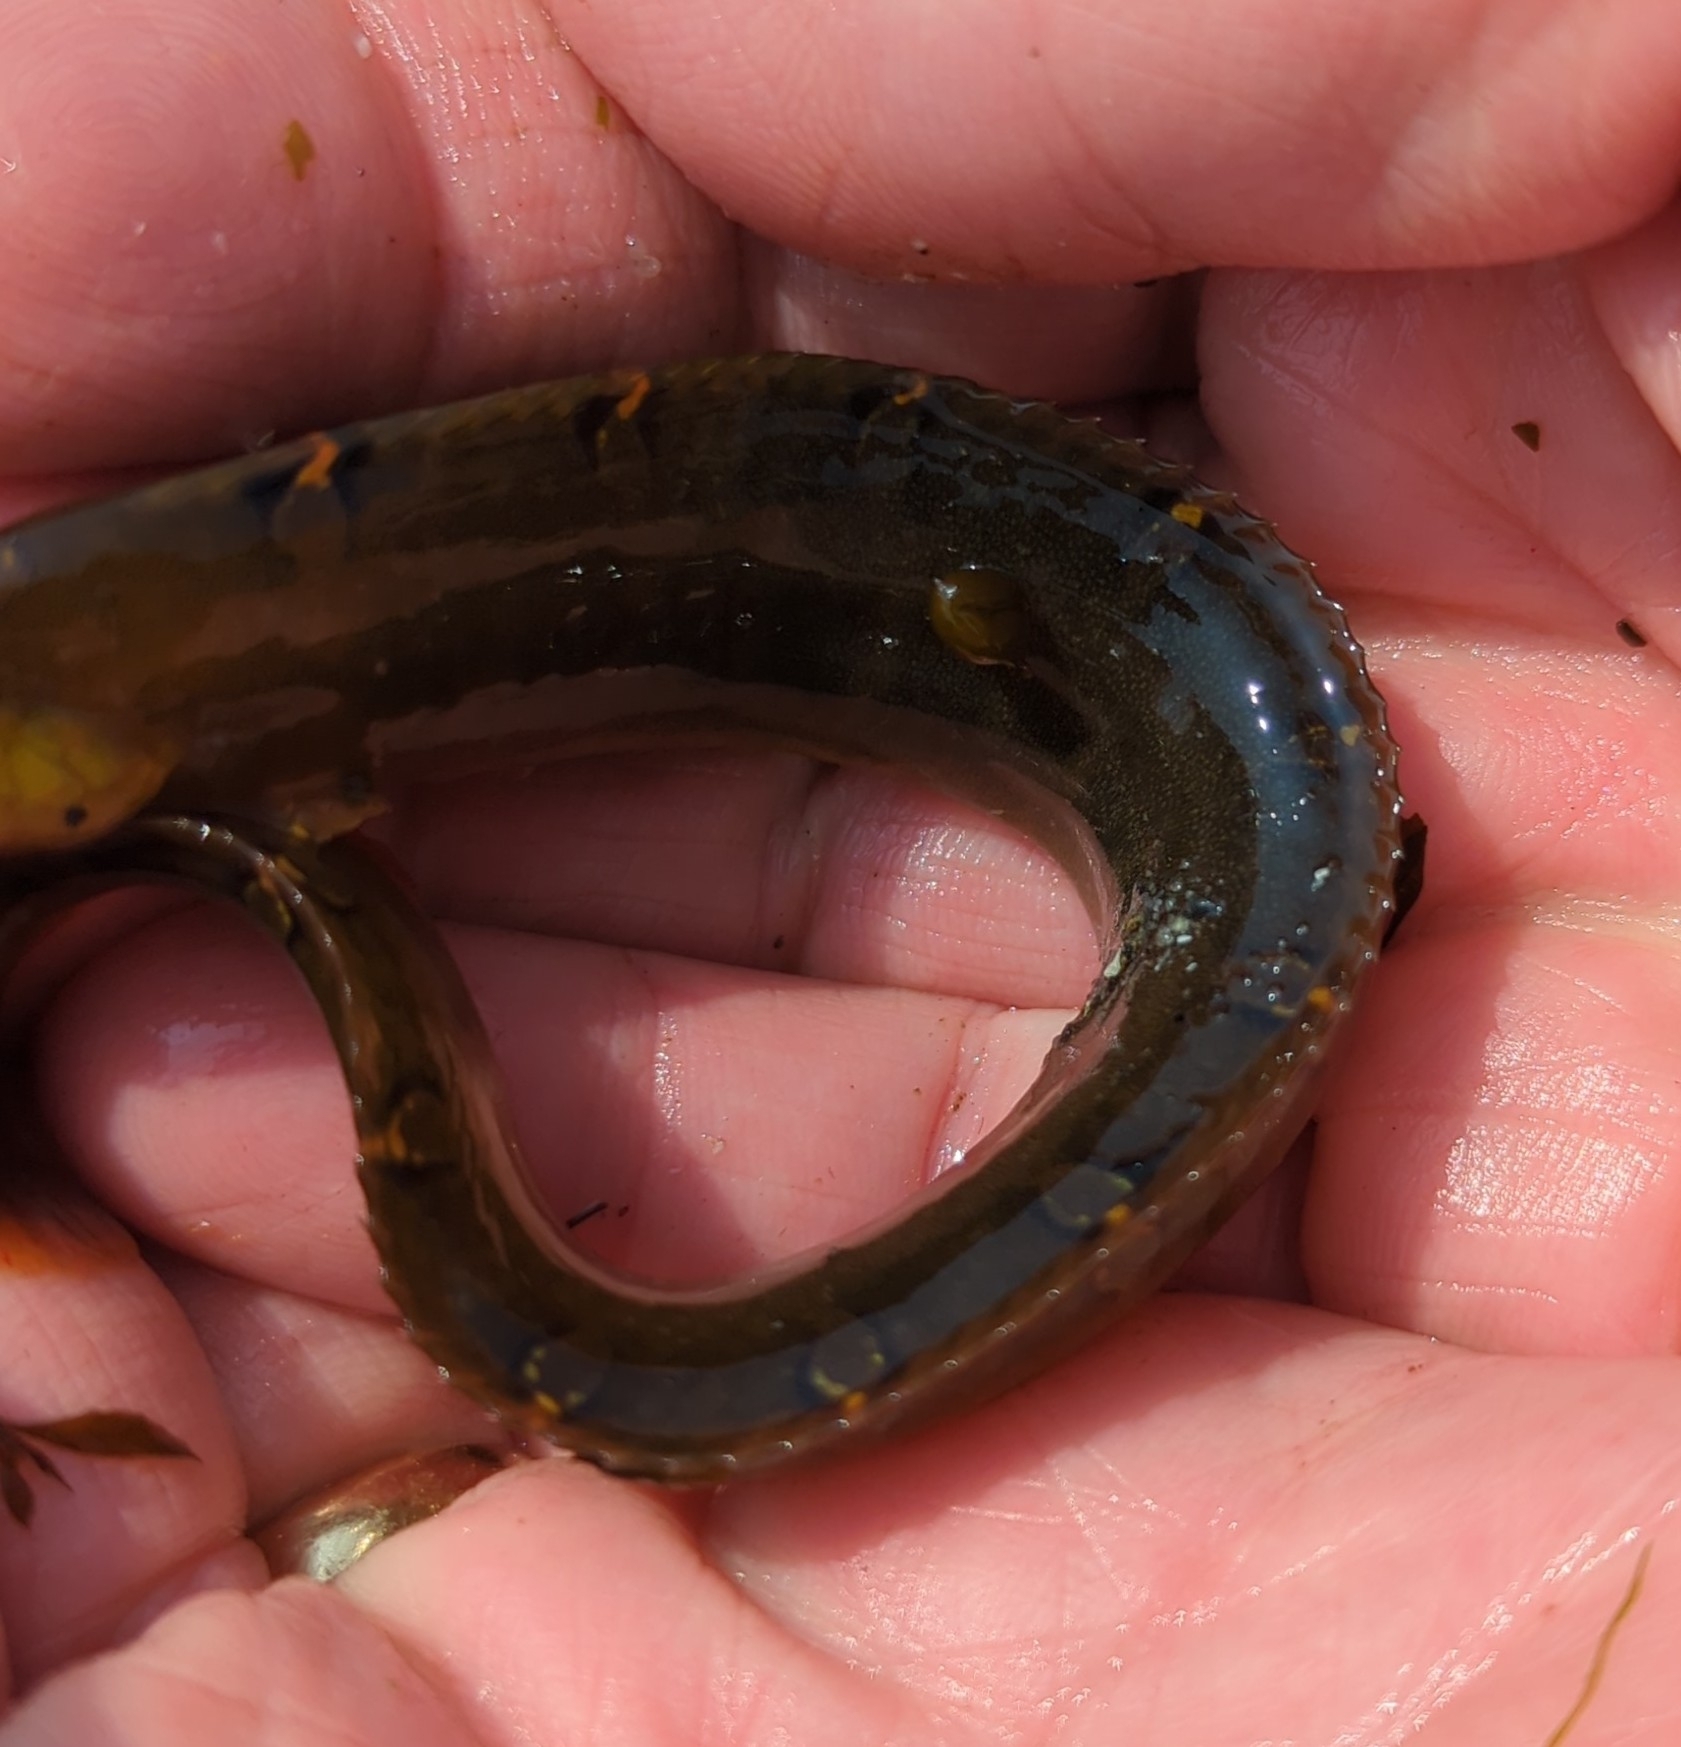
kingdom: Animalia
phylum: Chordata
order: Perciformes
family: Pholidae
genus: Apodichthys
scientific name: Apodichthys flavidus
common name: Penpoint gunnel
